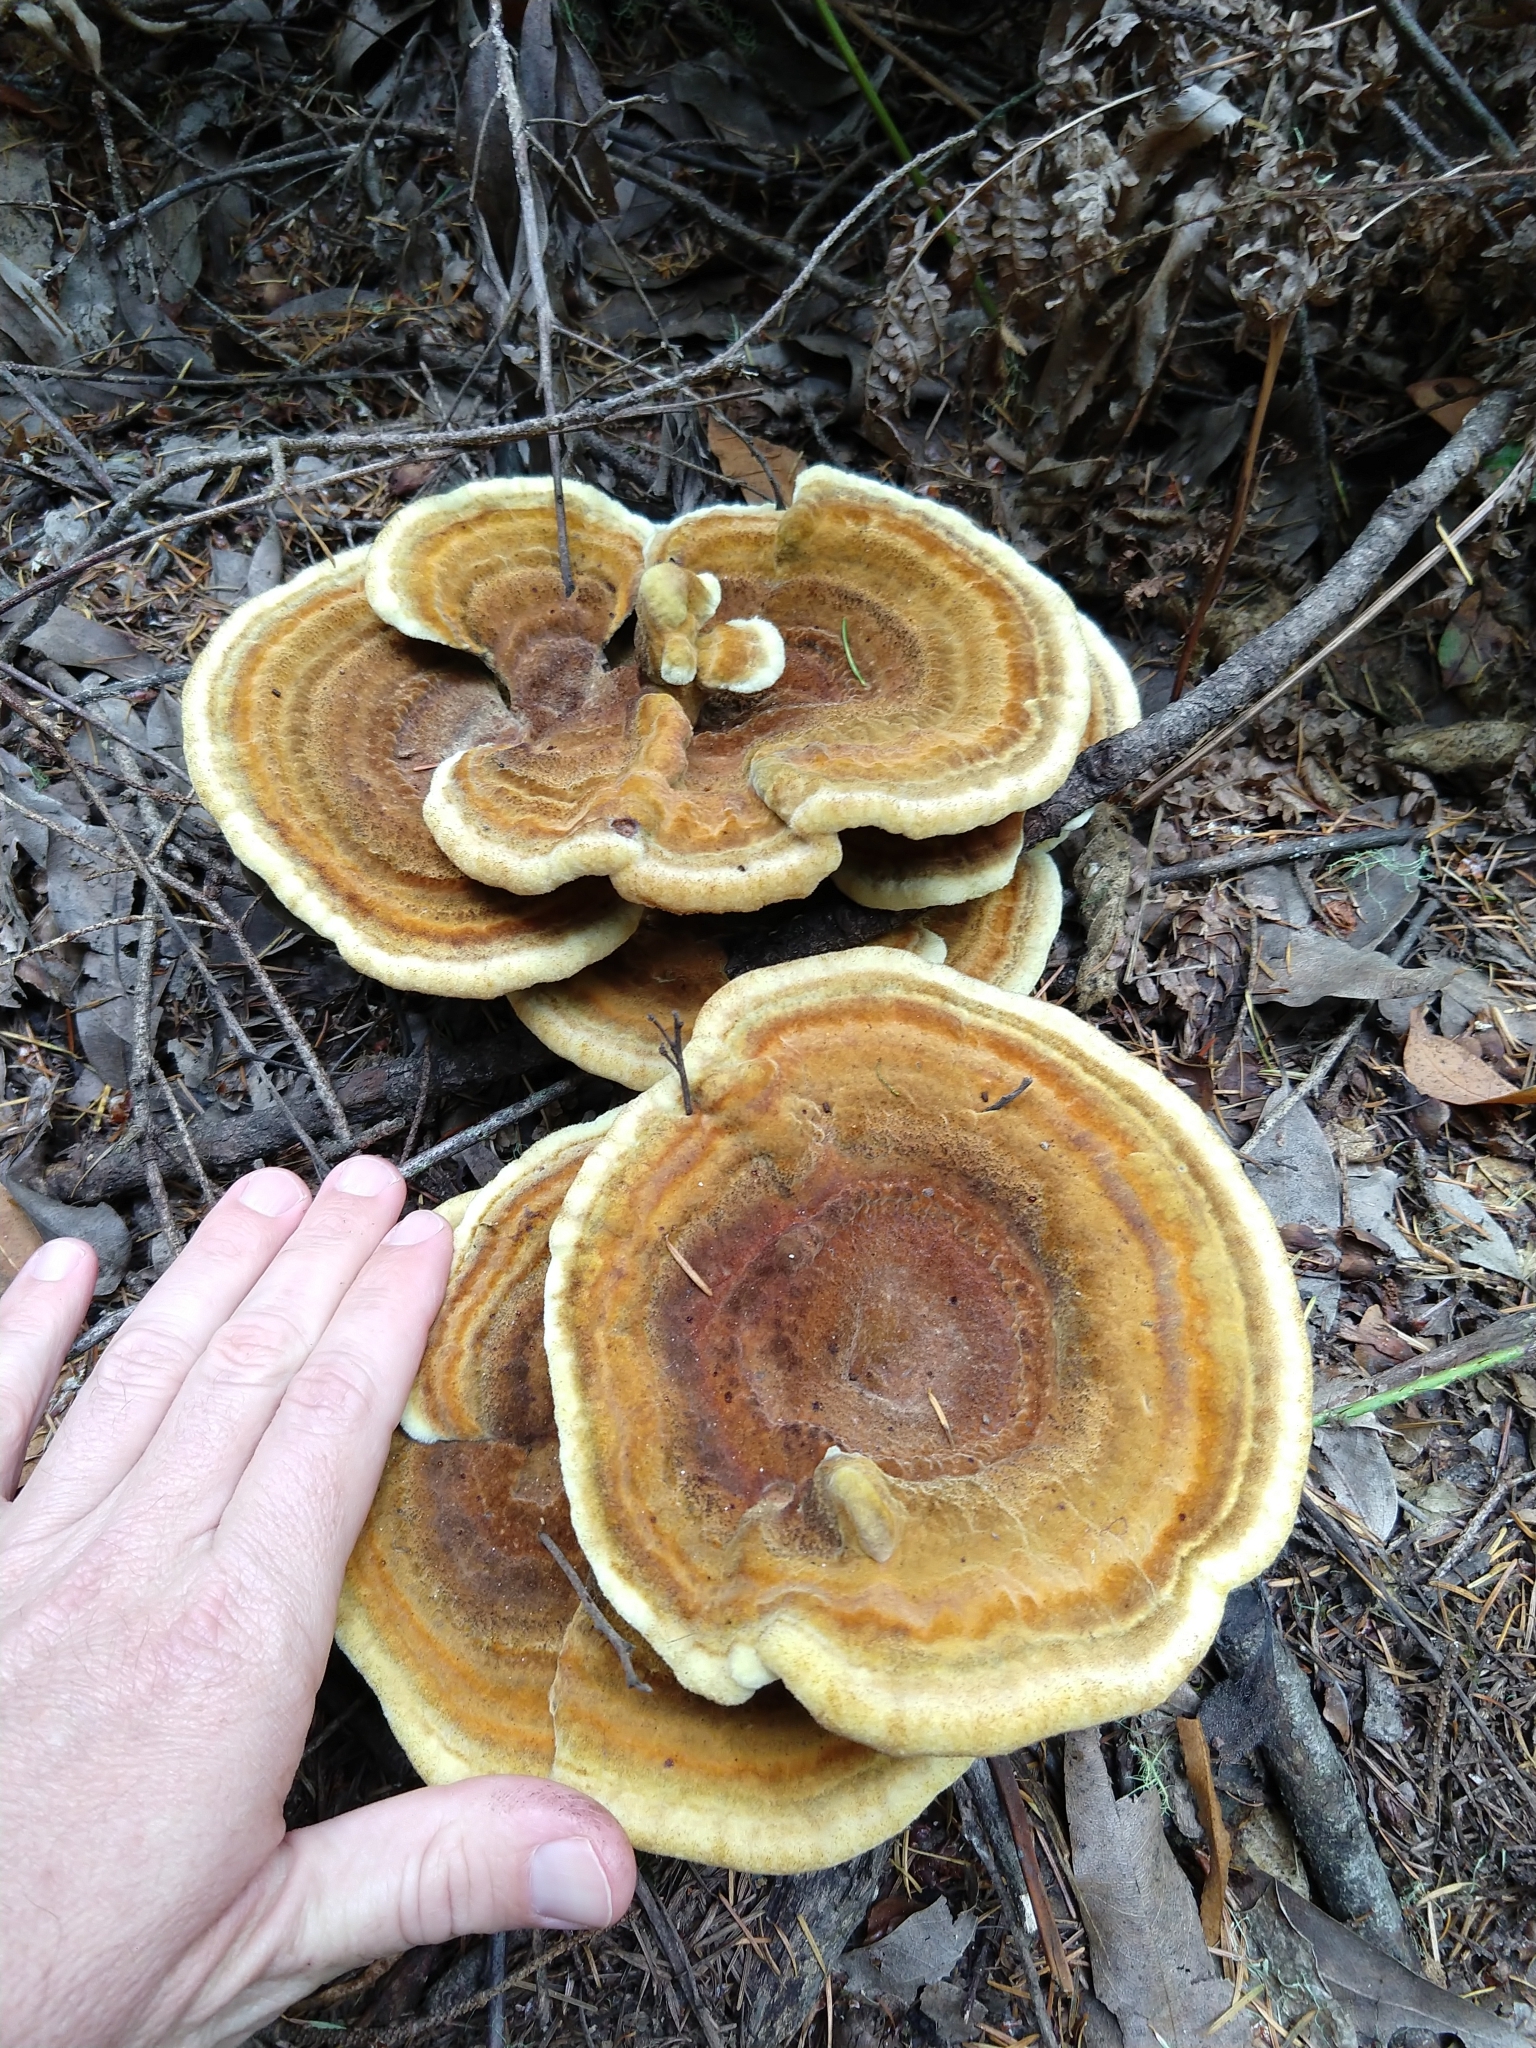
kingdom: Fungi
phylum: Basidiomycota
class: Agaricomycetes
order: Polyporales
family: Laetiporaceae
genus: Phaeolus
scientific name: Phaeolus schweinitzii
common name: Dyer's mazegill
